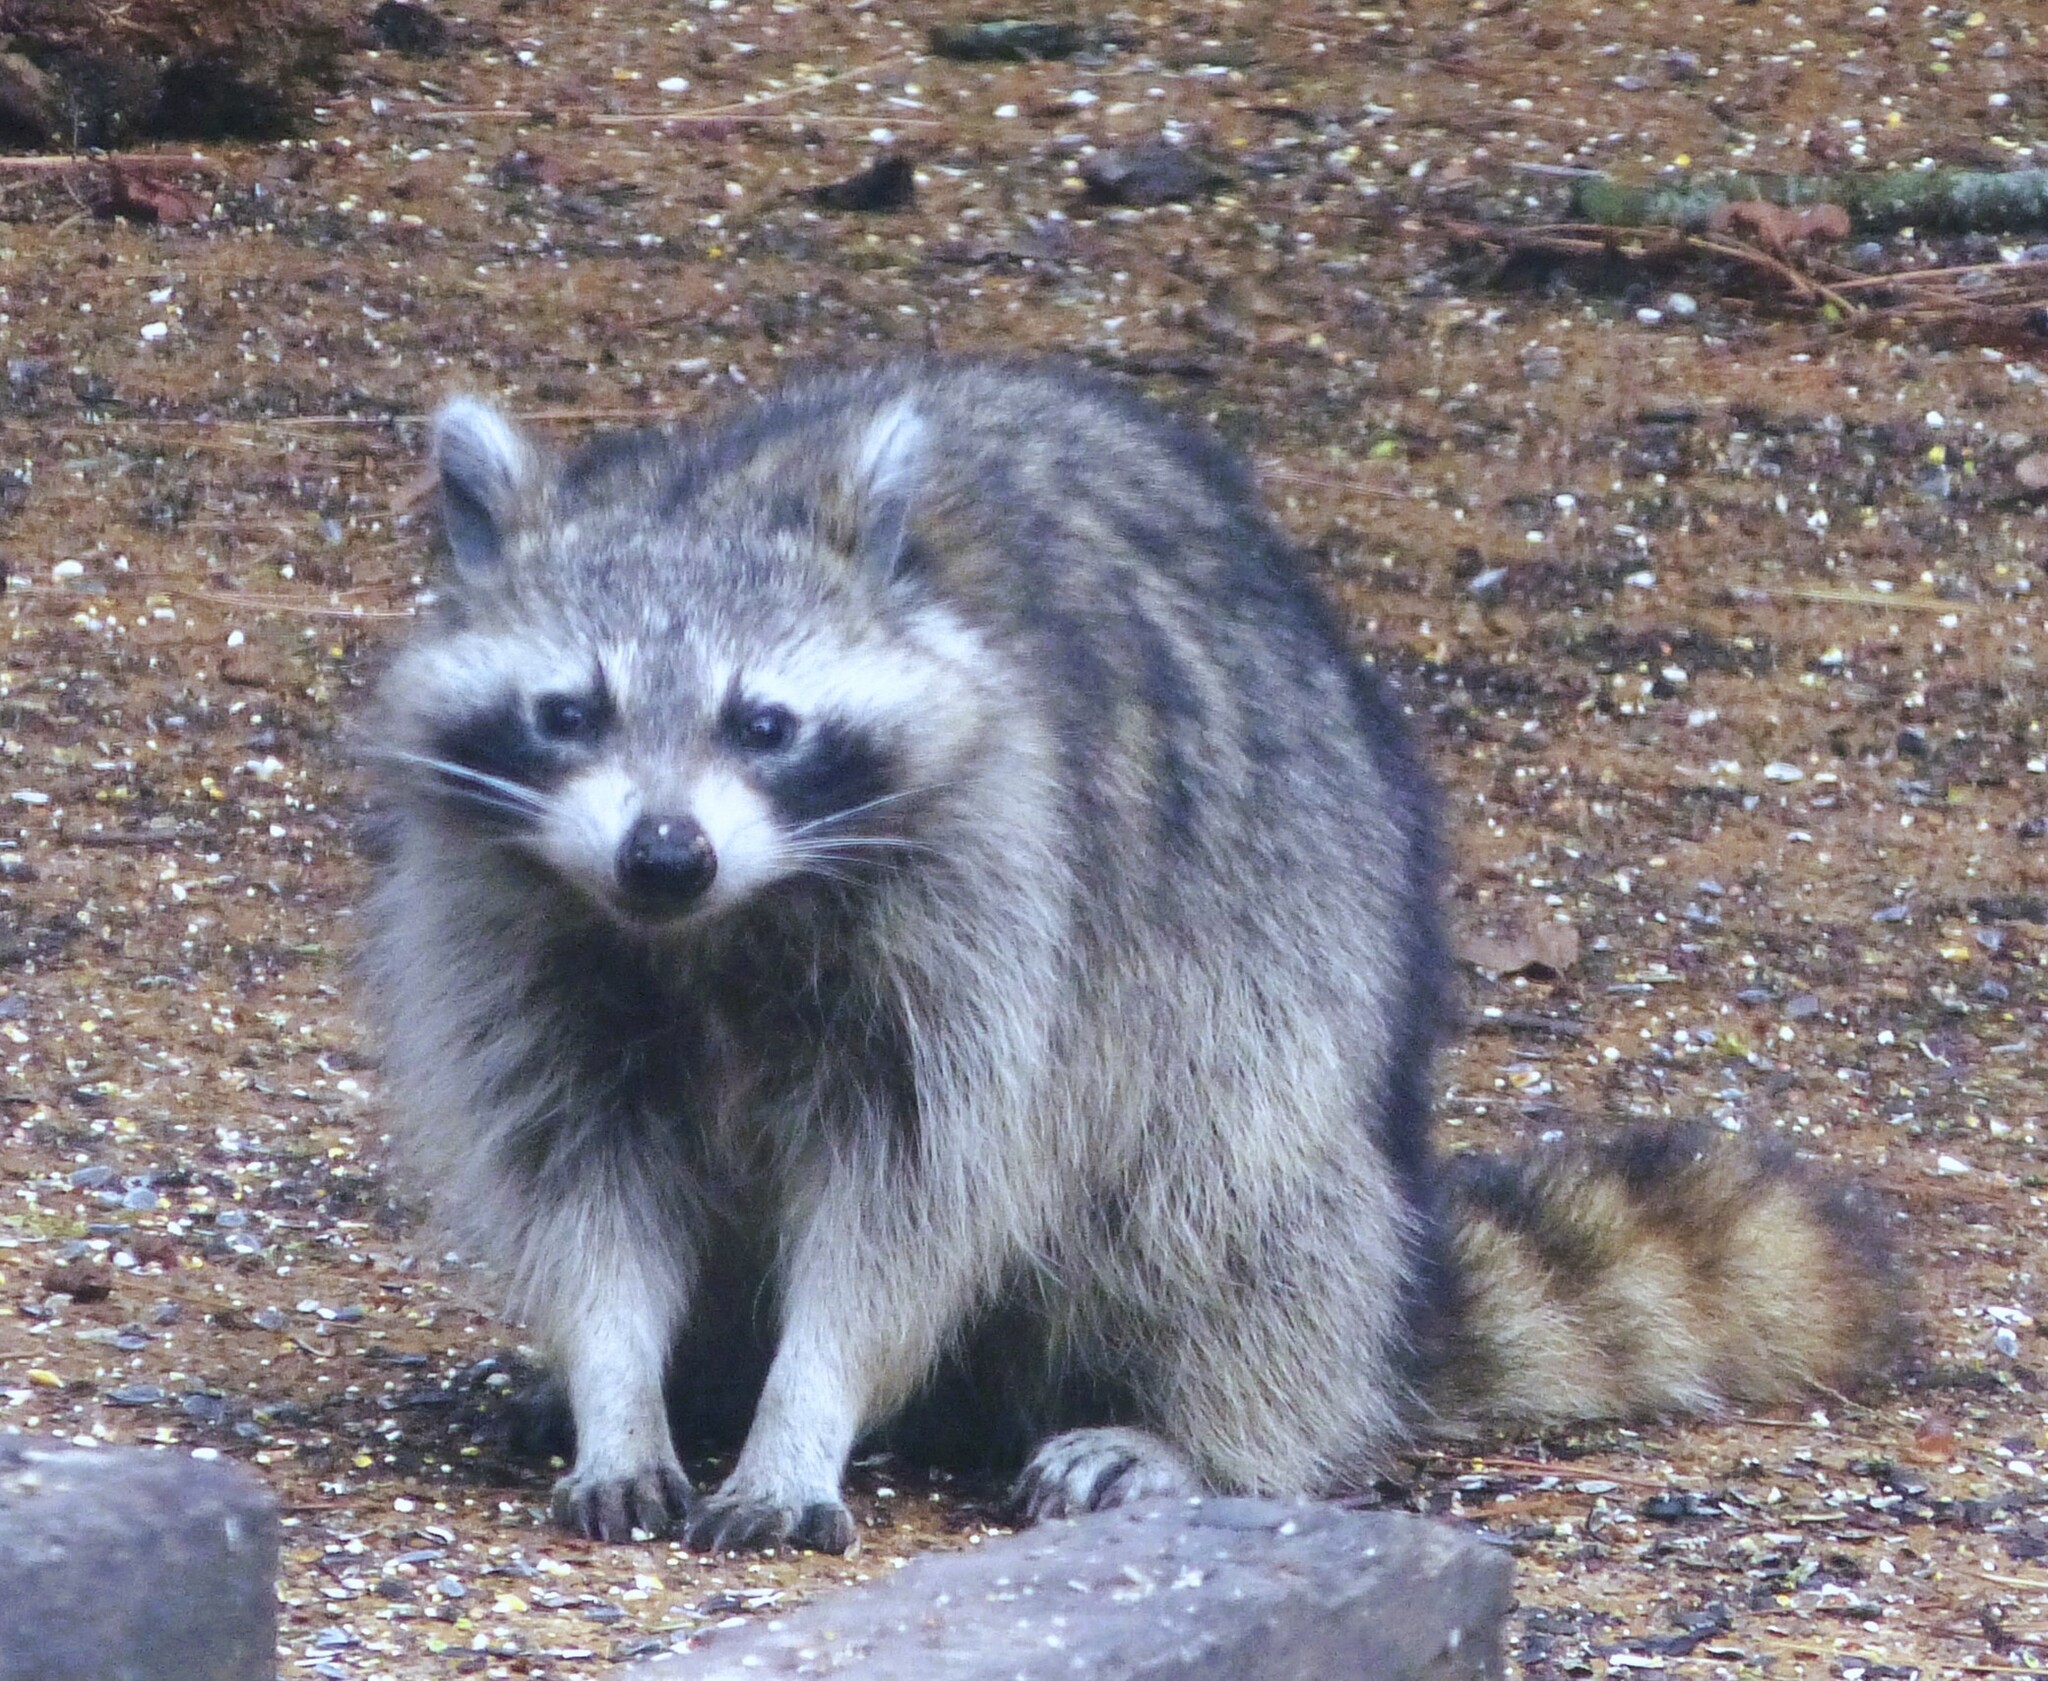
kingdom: Animalia
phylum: Chordata
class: Mammalia
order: Carnivora
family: Procyonidae
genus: Procyon
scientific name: Procyon lotor
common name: Raccoon
